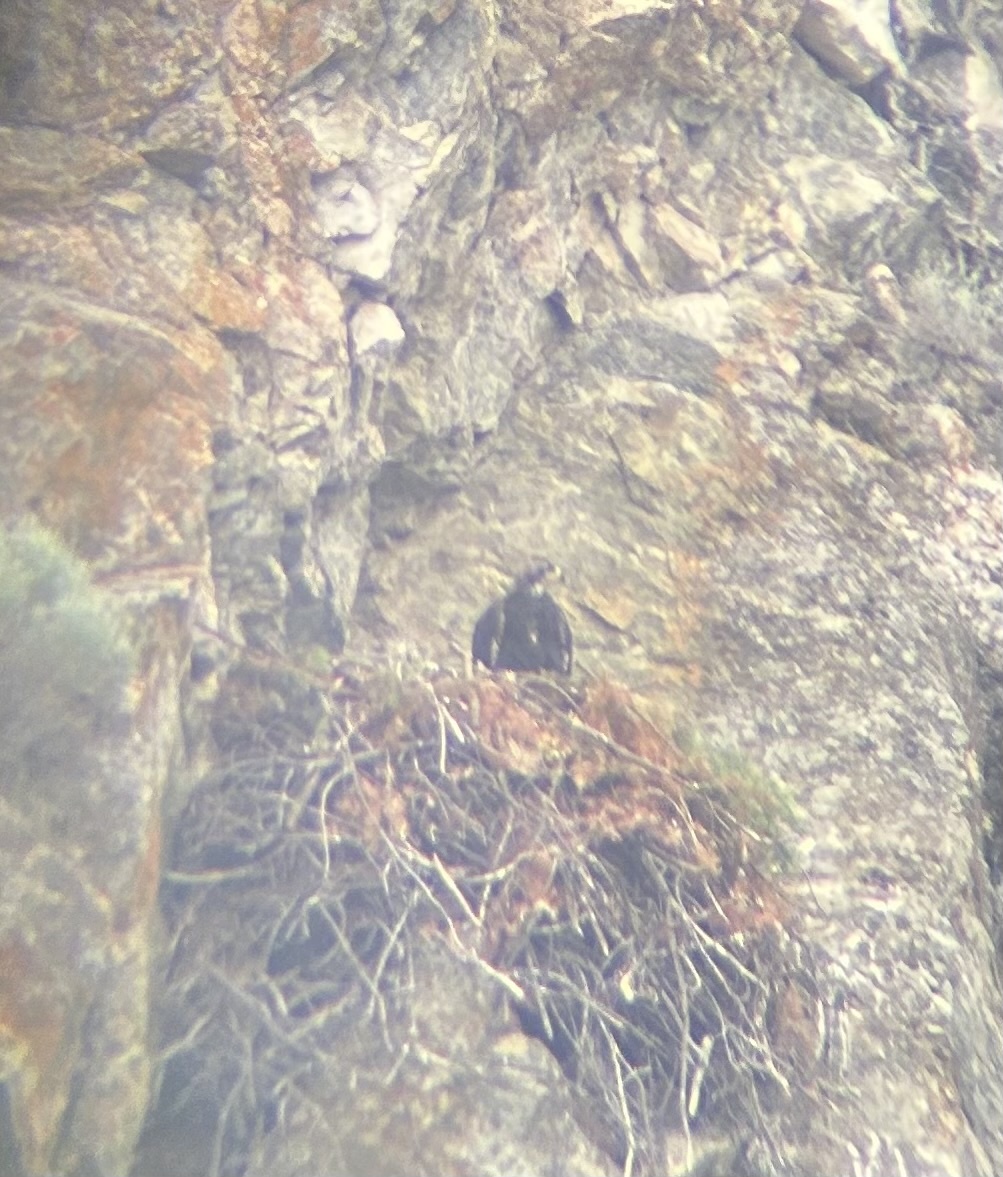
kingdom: Animalia
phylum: Chordata
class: Aves
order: Accipitriformes
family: Accipitridae
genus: Aquila
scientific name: Aquila chrysaetos
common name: Golden eagle
